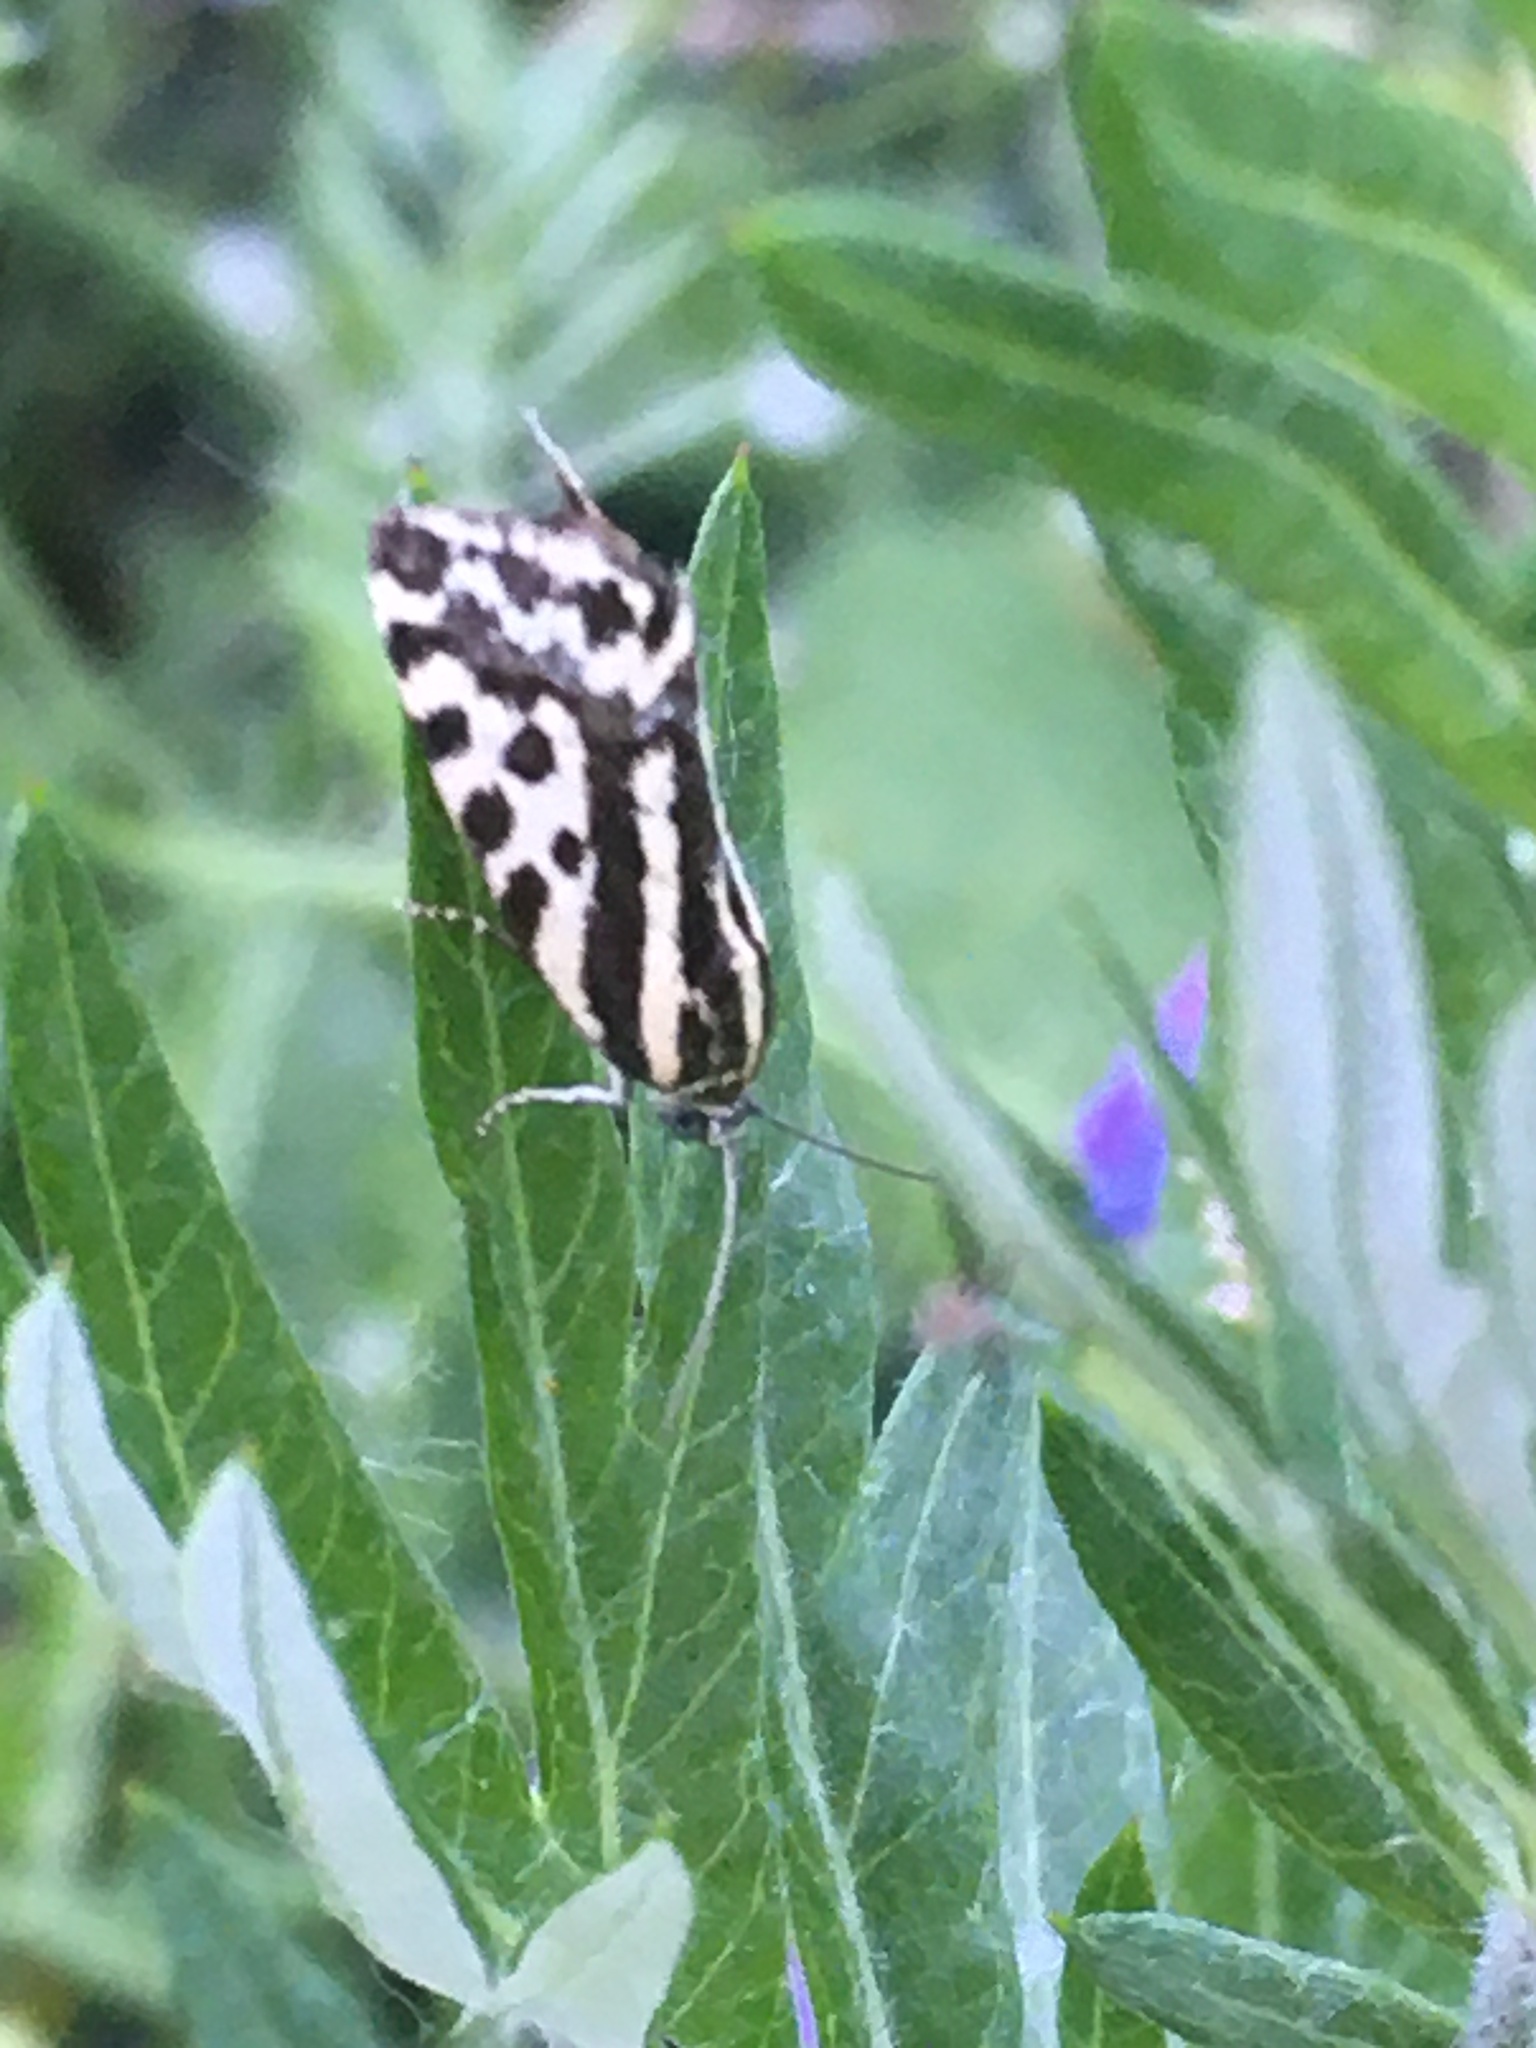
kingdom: Animalia
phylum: Arthropoda
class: Insecta
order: Lepidoptera
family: Noctuidae
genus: Acontia
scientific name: Acontia trabealis
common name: Spotted sulphur
